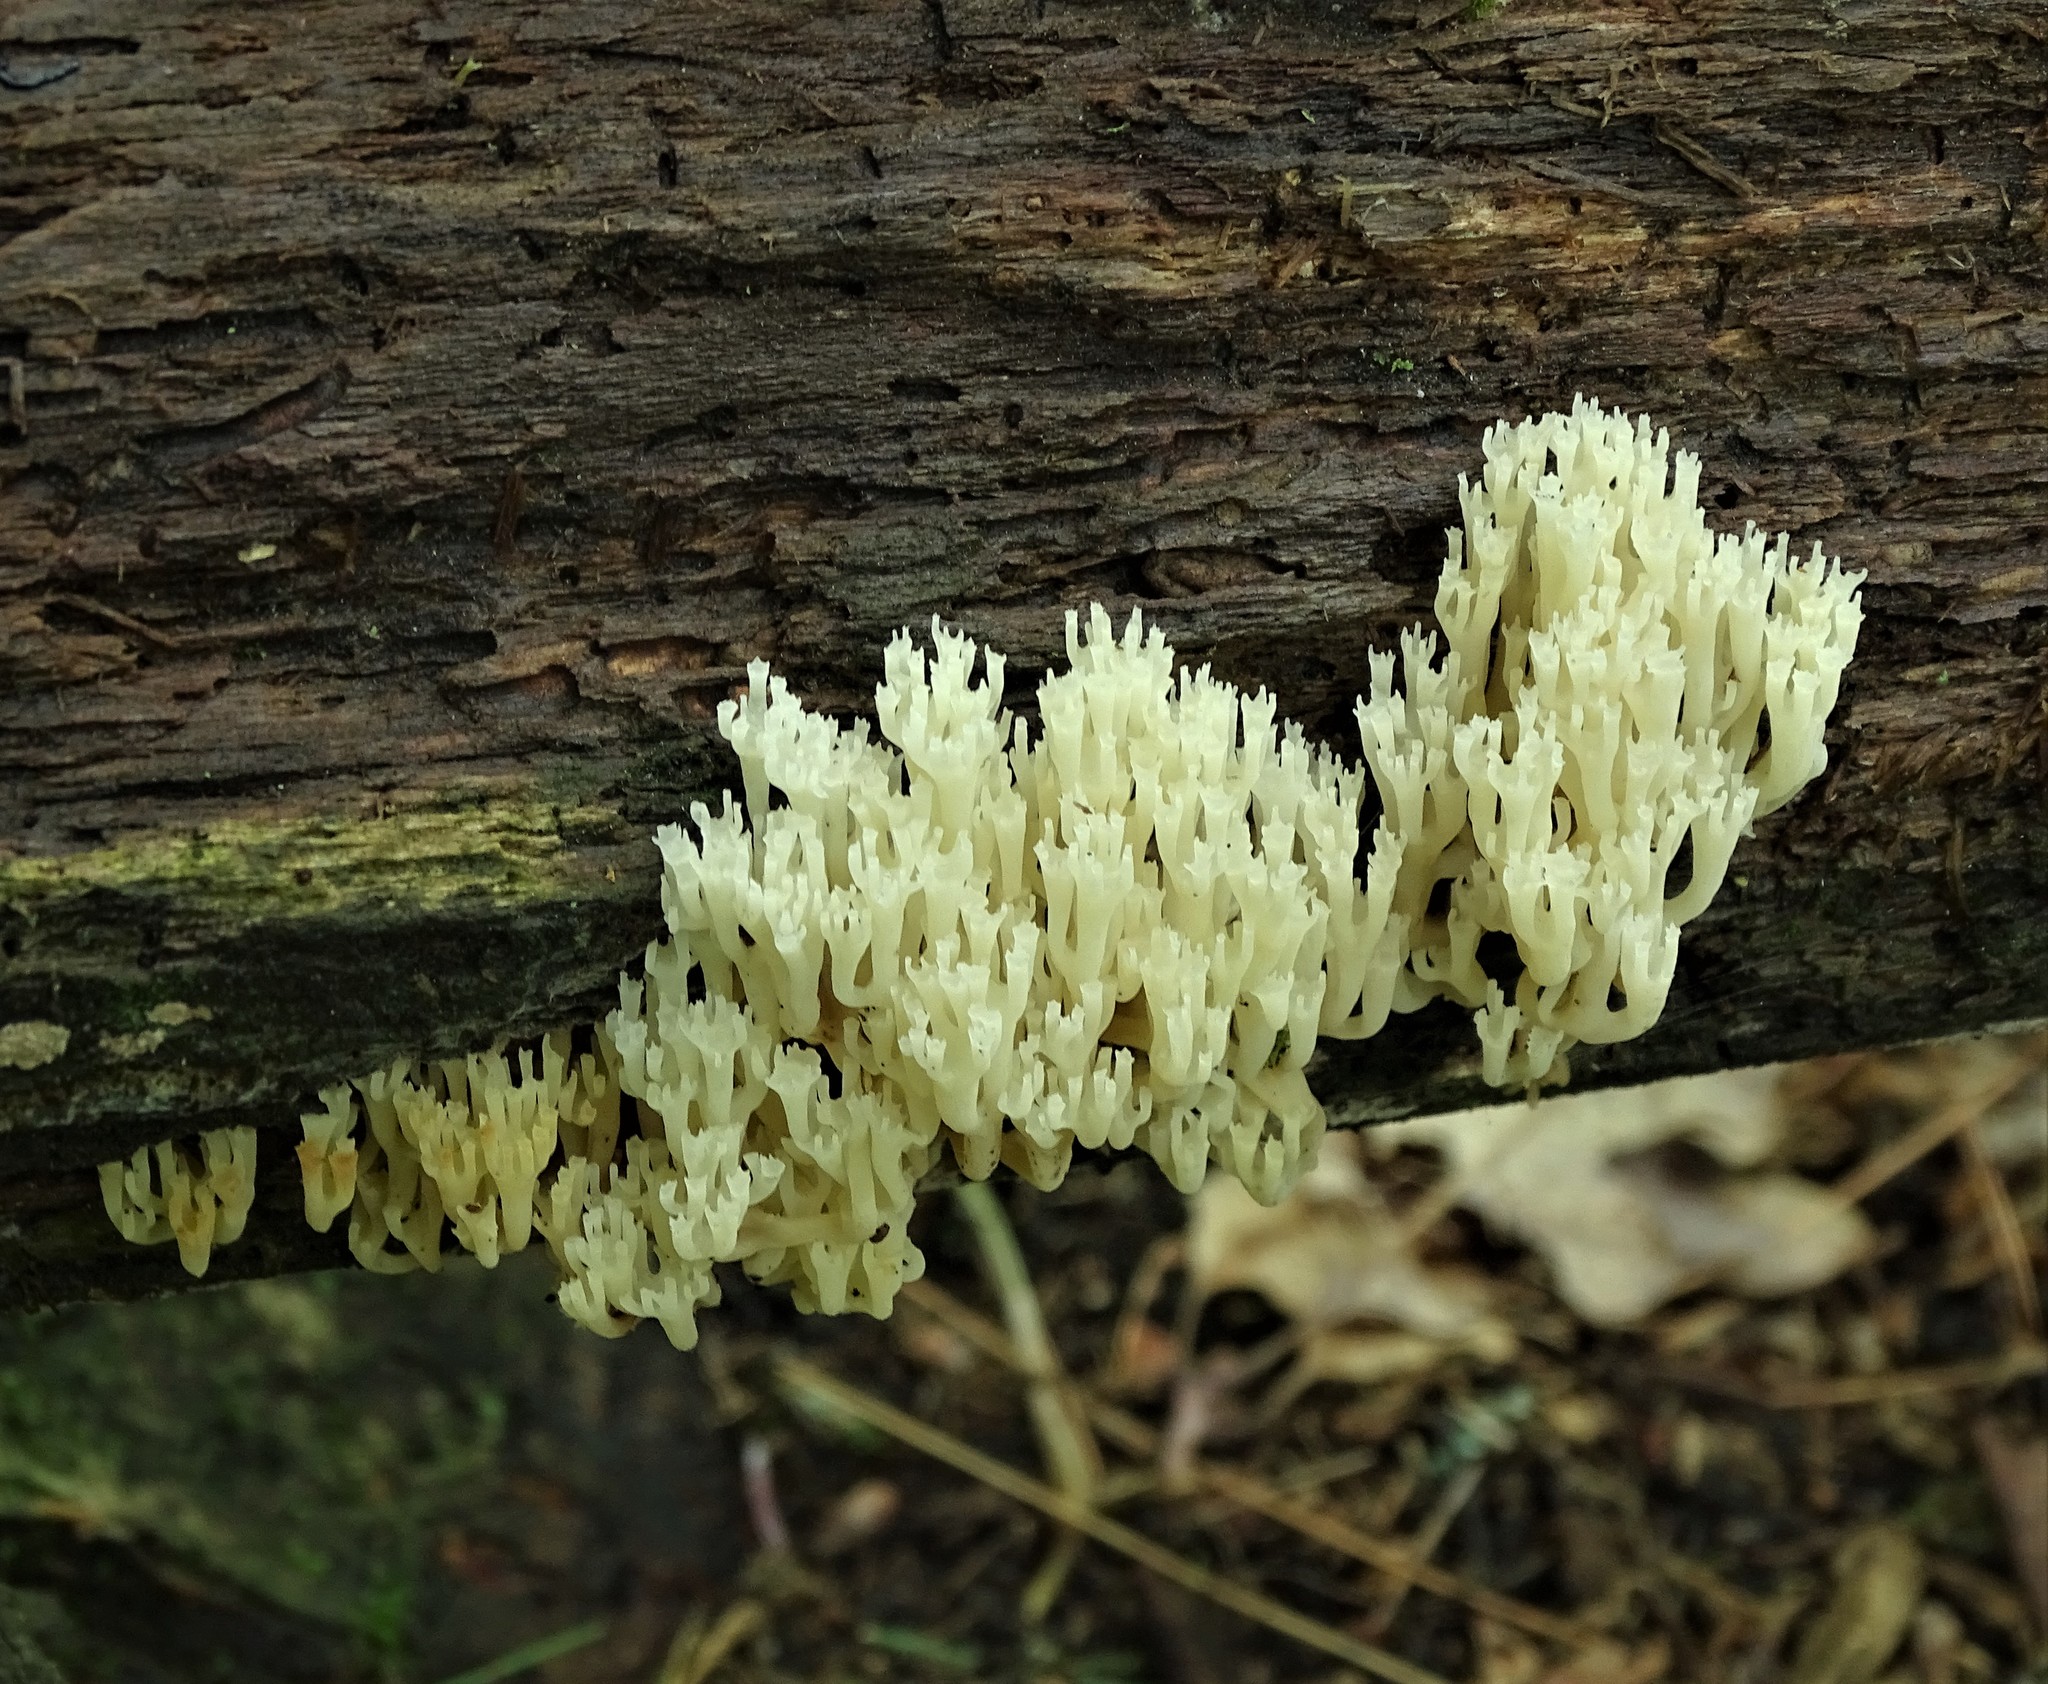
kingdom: Fungi
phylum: Basidiomycota
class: Agaricomycetes
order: Russulales
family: Auriscalpiaceae
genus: Artomyces
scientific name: Artomyces pyxidatus
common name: Crown-tipped coral fungus
